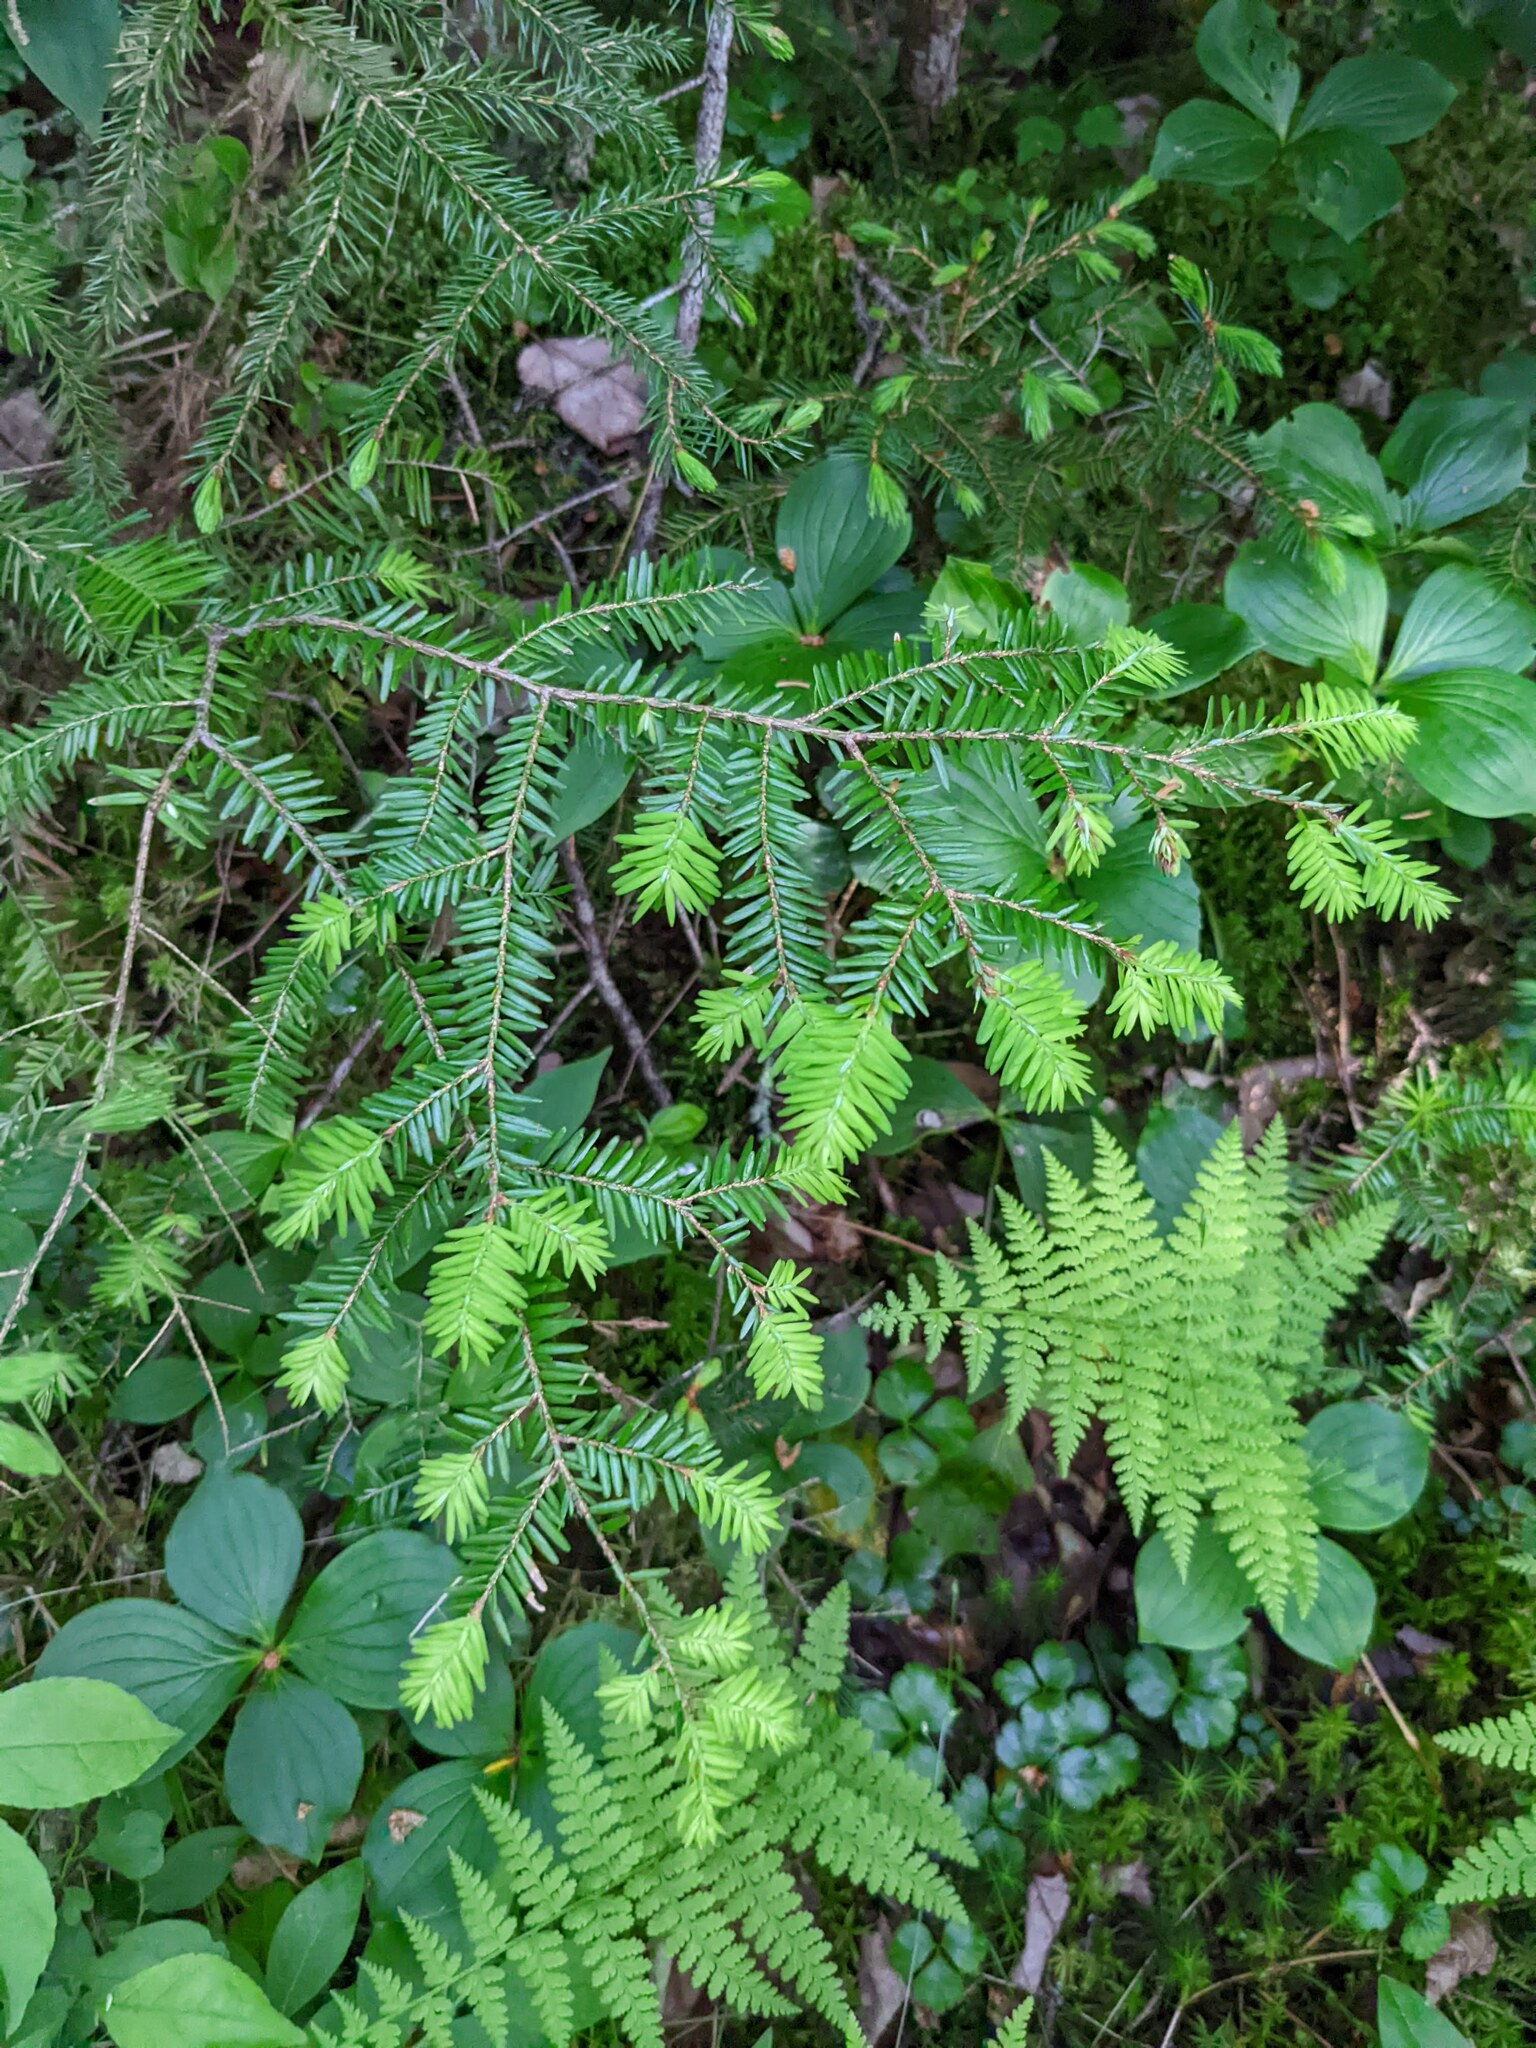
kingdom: Plantae
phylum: Tracheophyta
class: Pinopsida
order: Pinales
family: Pinaceae
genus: Tsuga
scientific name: Tsuga canadensis
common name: Eastern hemlock
